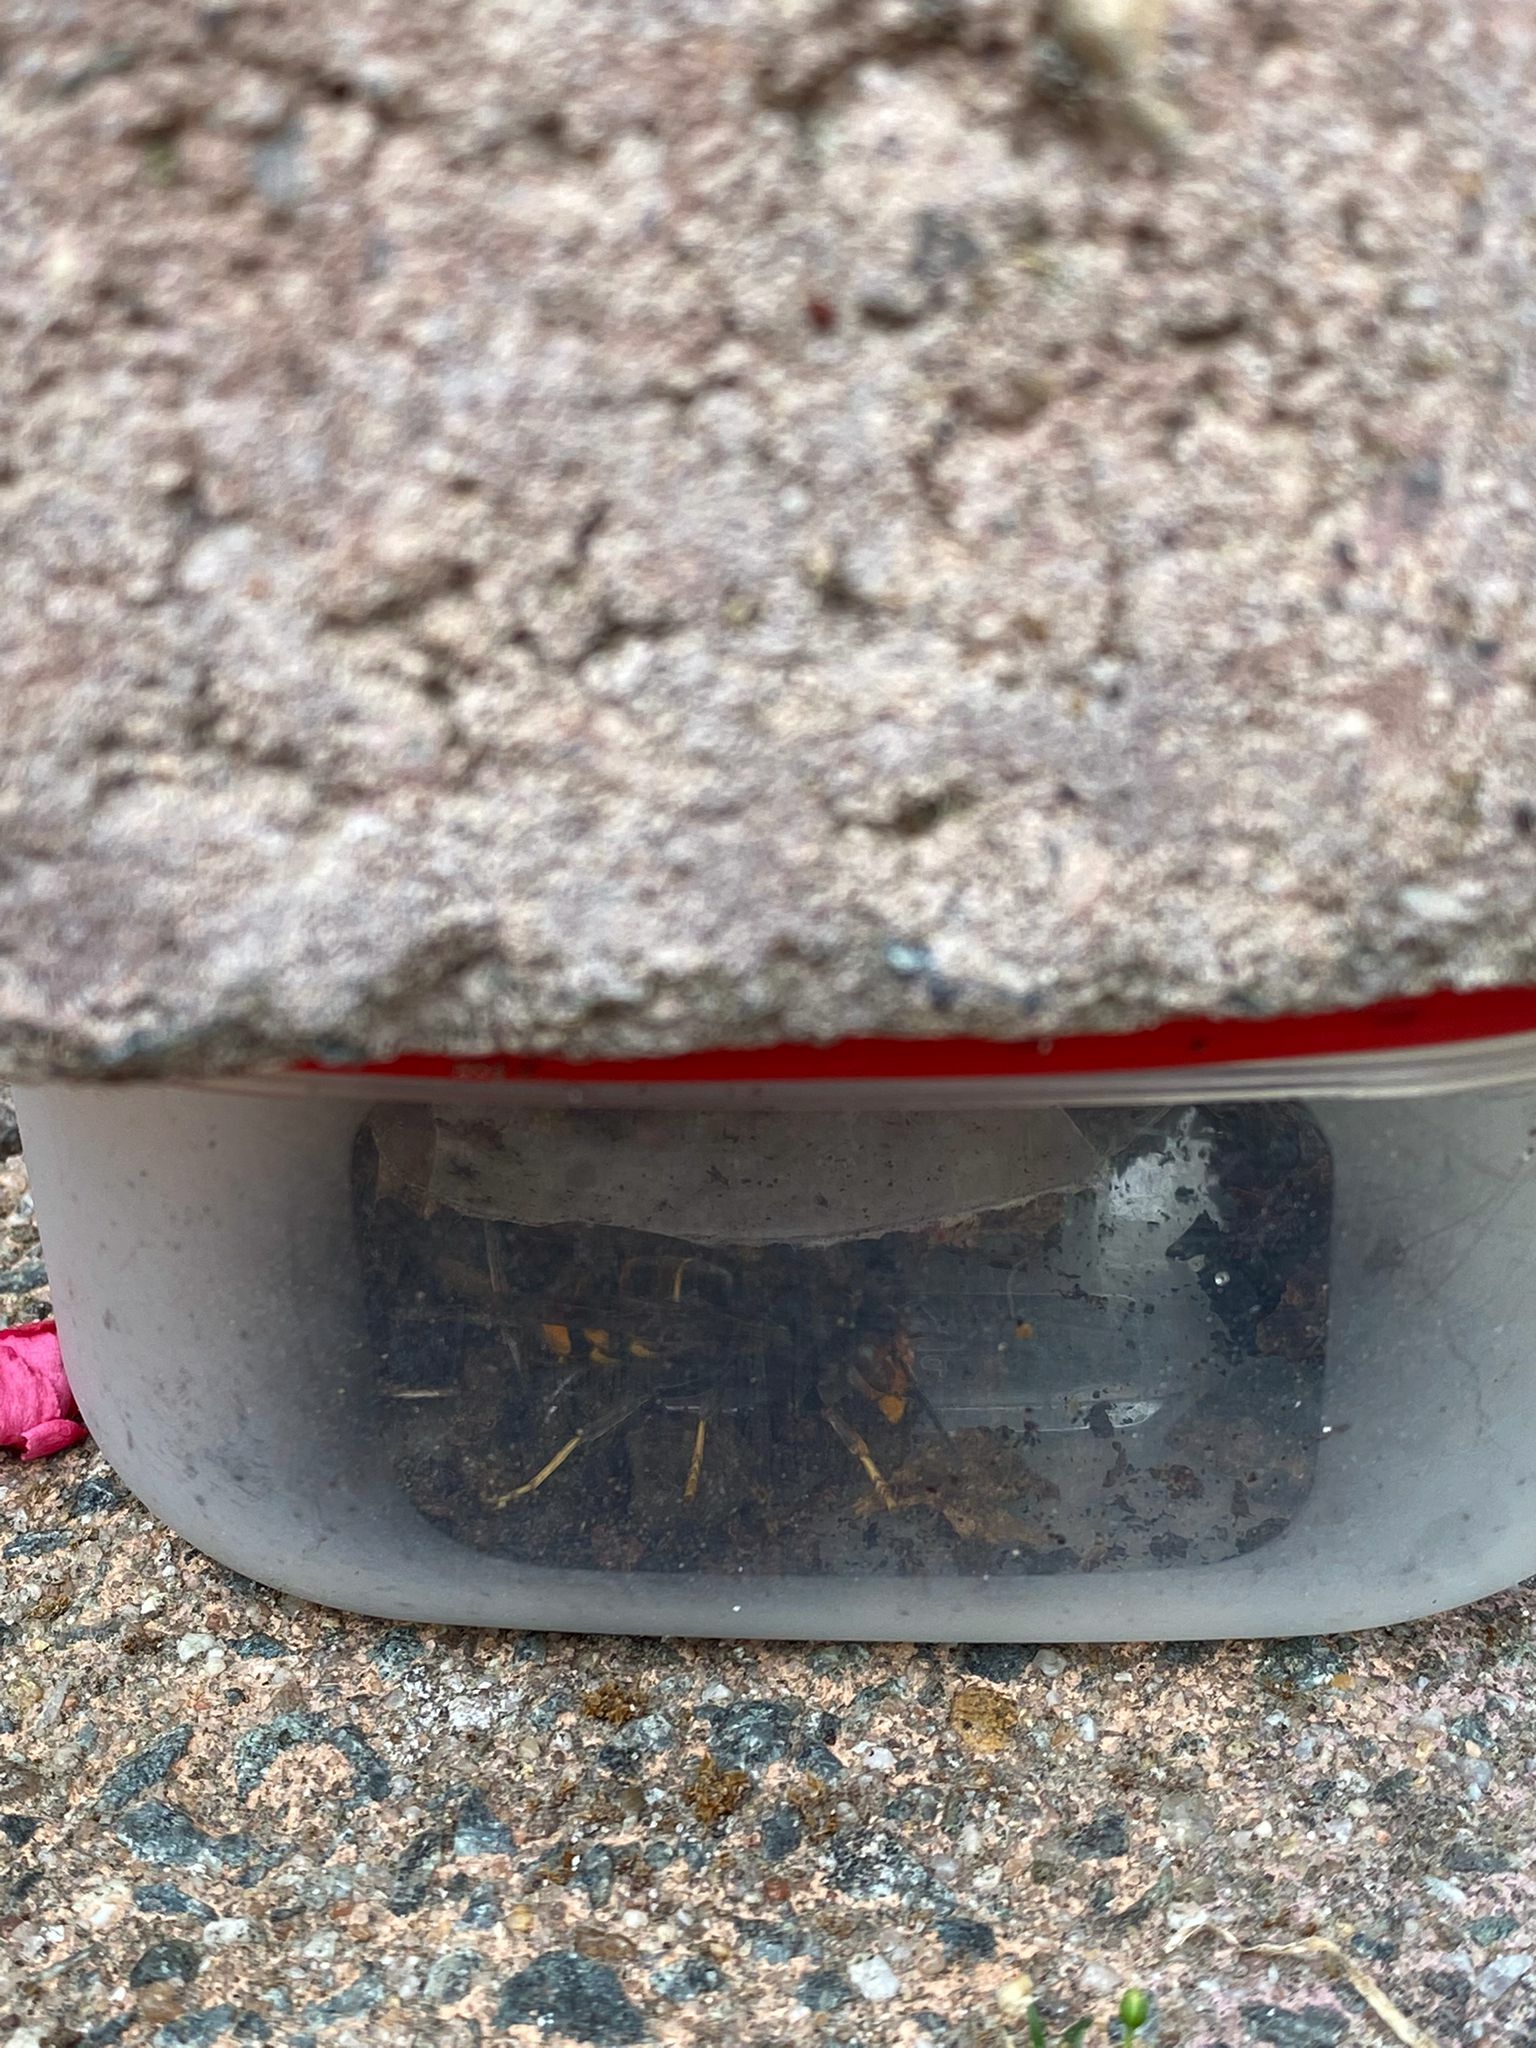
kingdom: Animalia
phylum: Arthropoda
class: Insecta
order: Hymenoptera
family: Vespidae
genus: Vespa
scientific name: Vespa velutina
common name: Asian hornet
